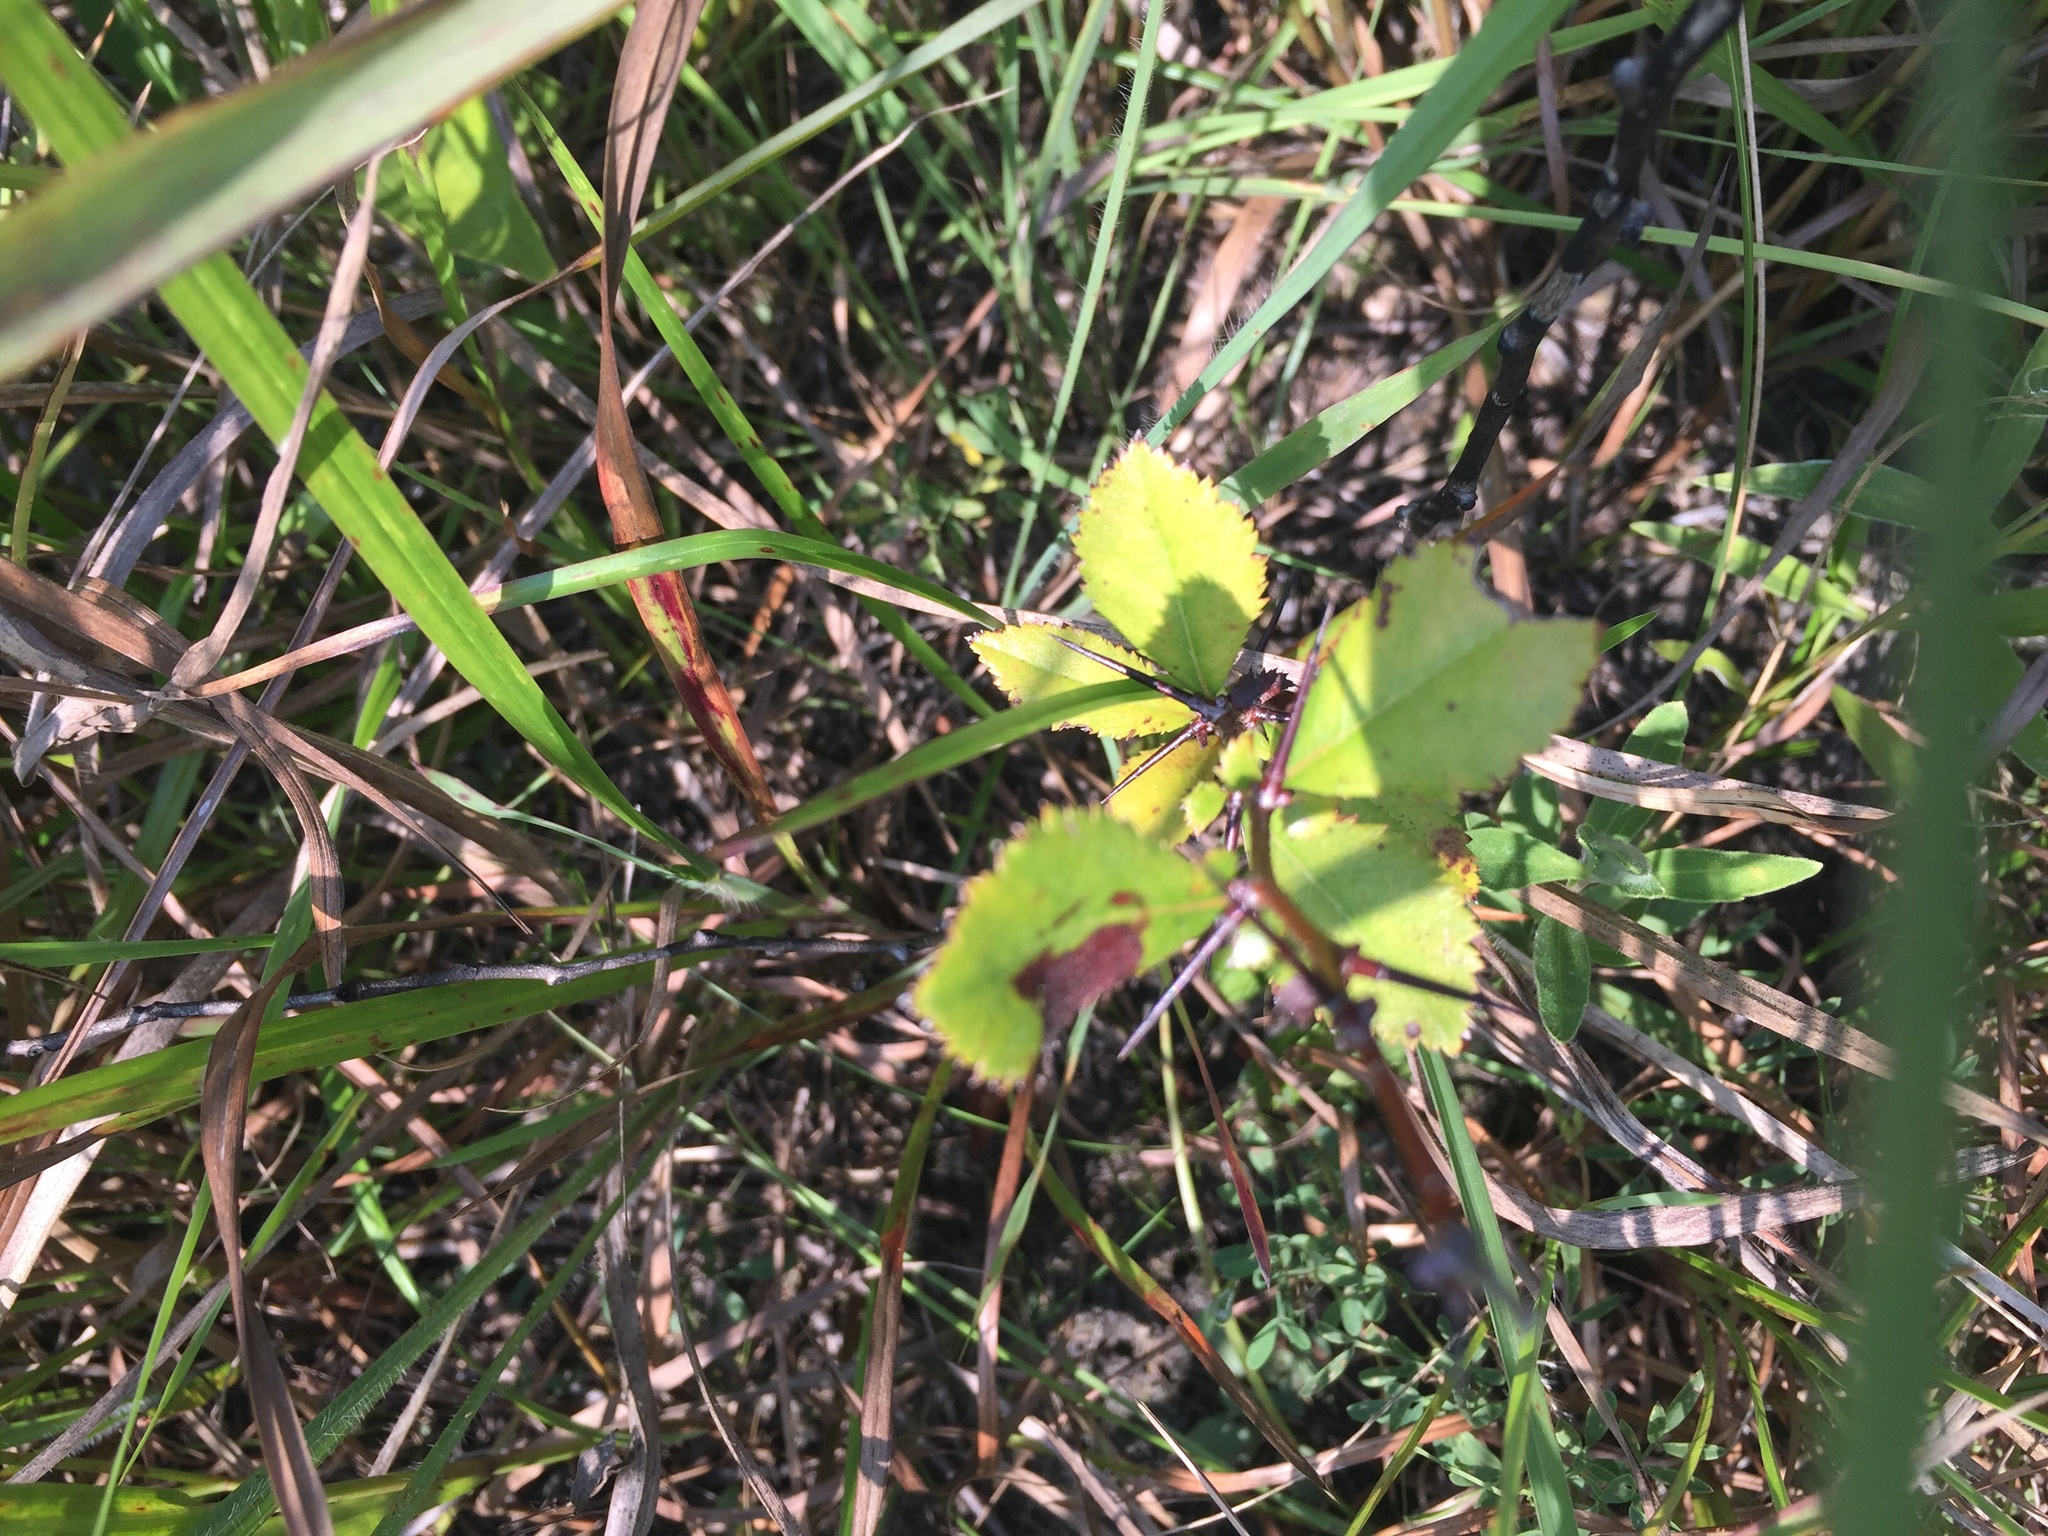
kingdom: Plantae
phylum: Tracheophyta
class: Magnoliopsida
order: Rosales
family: Rosaceae
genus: Crataegus
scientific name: Crataegus berberifolia
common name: Barberry hawthorn
